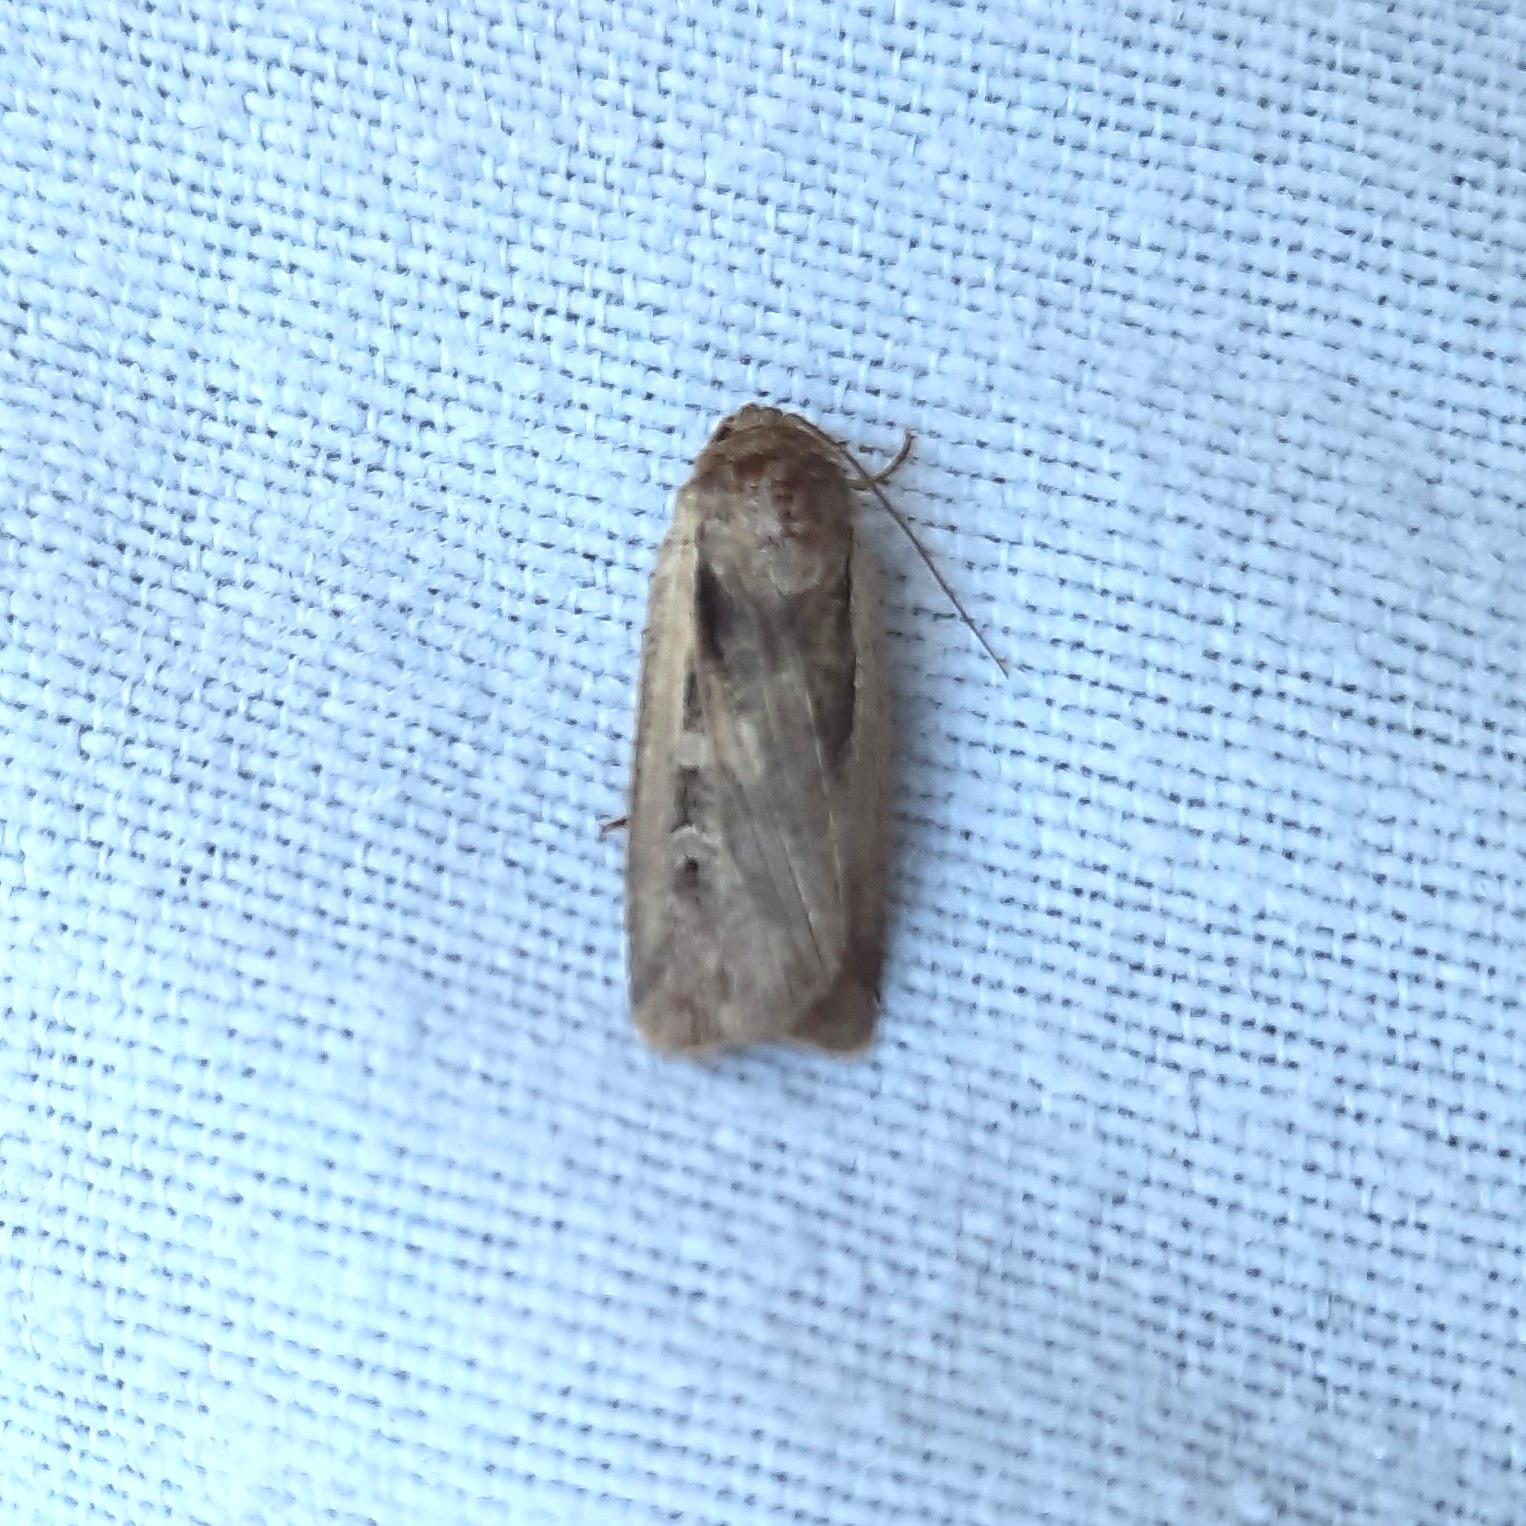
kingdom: Animalia
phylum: Arthropoda
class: Insecta
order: Lepidoptera
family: Noctuidae
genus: Ochropleura
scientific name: Ochropleura plecta
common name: Flame shoulder
